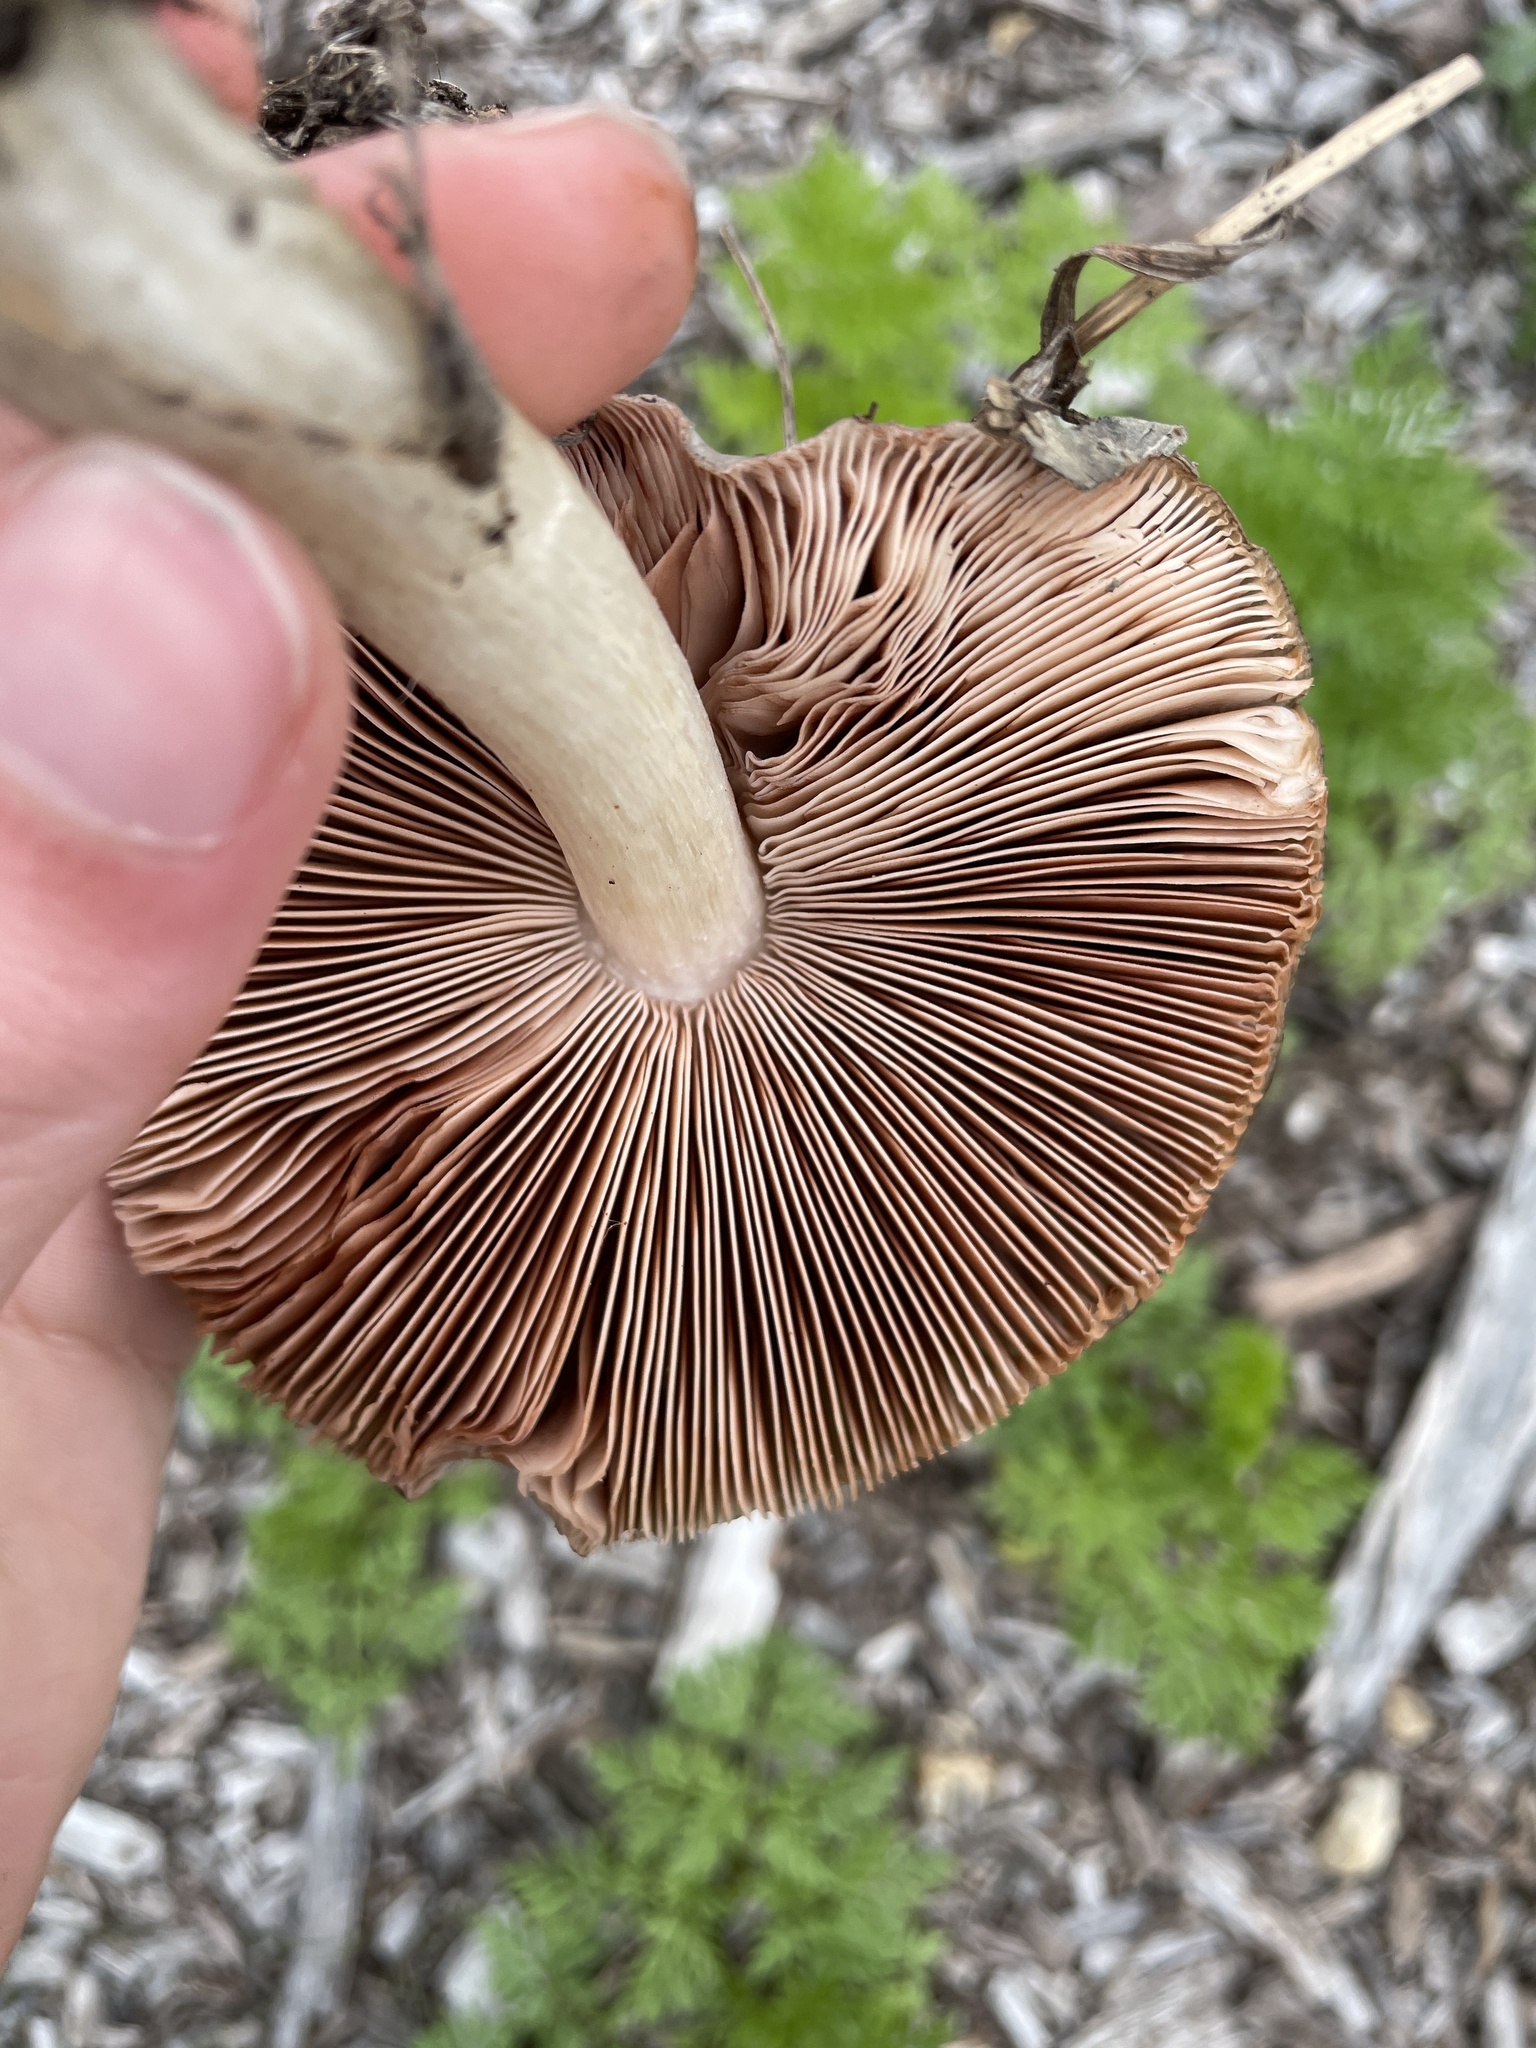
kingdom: Fungi
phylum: Basidiomycota
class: Agaricomycetes
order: Agaricales
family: Pluteaceae
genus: Volvopluteus
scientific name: Volvopluteus gloiocephalus
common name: Stubble rosegill
